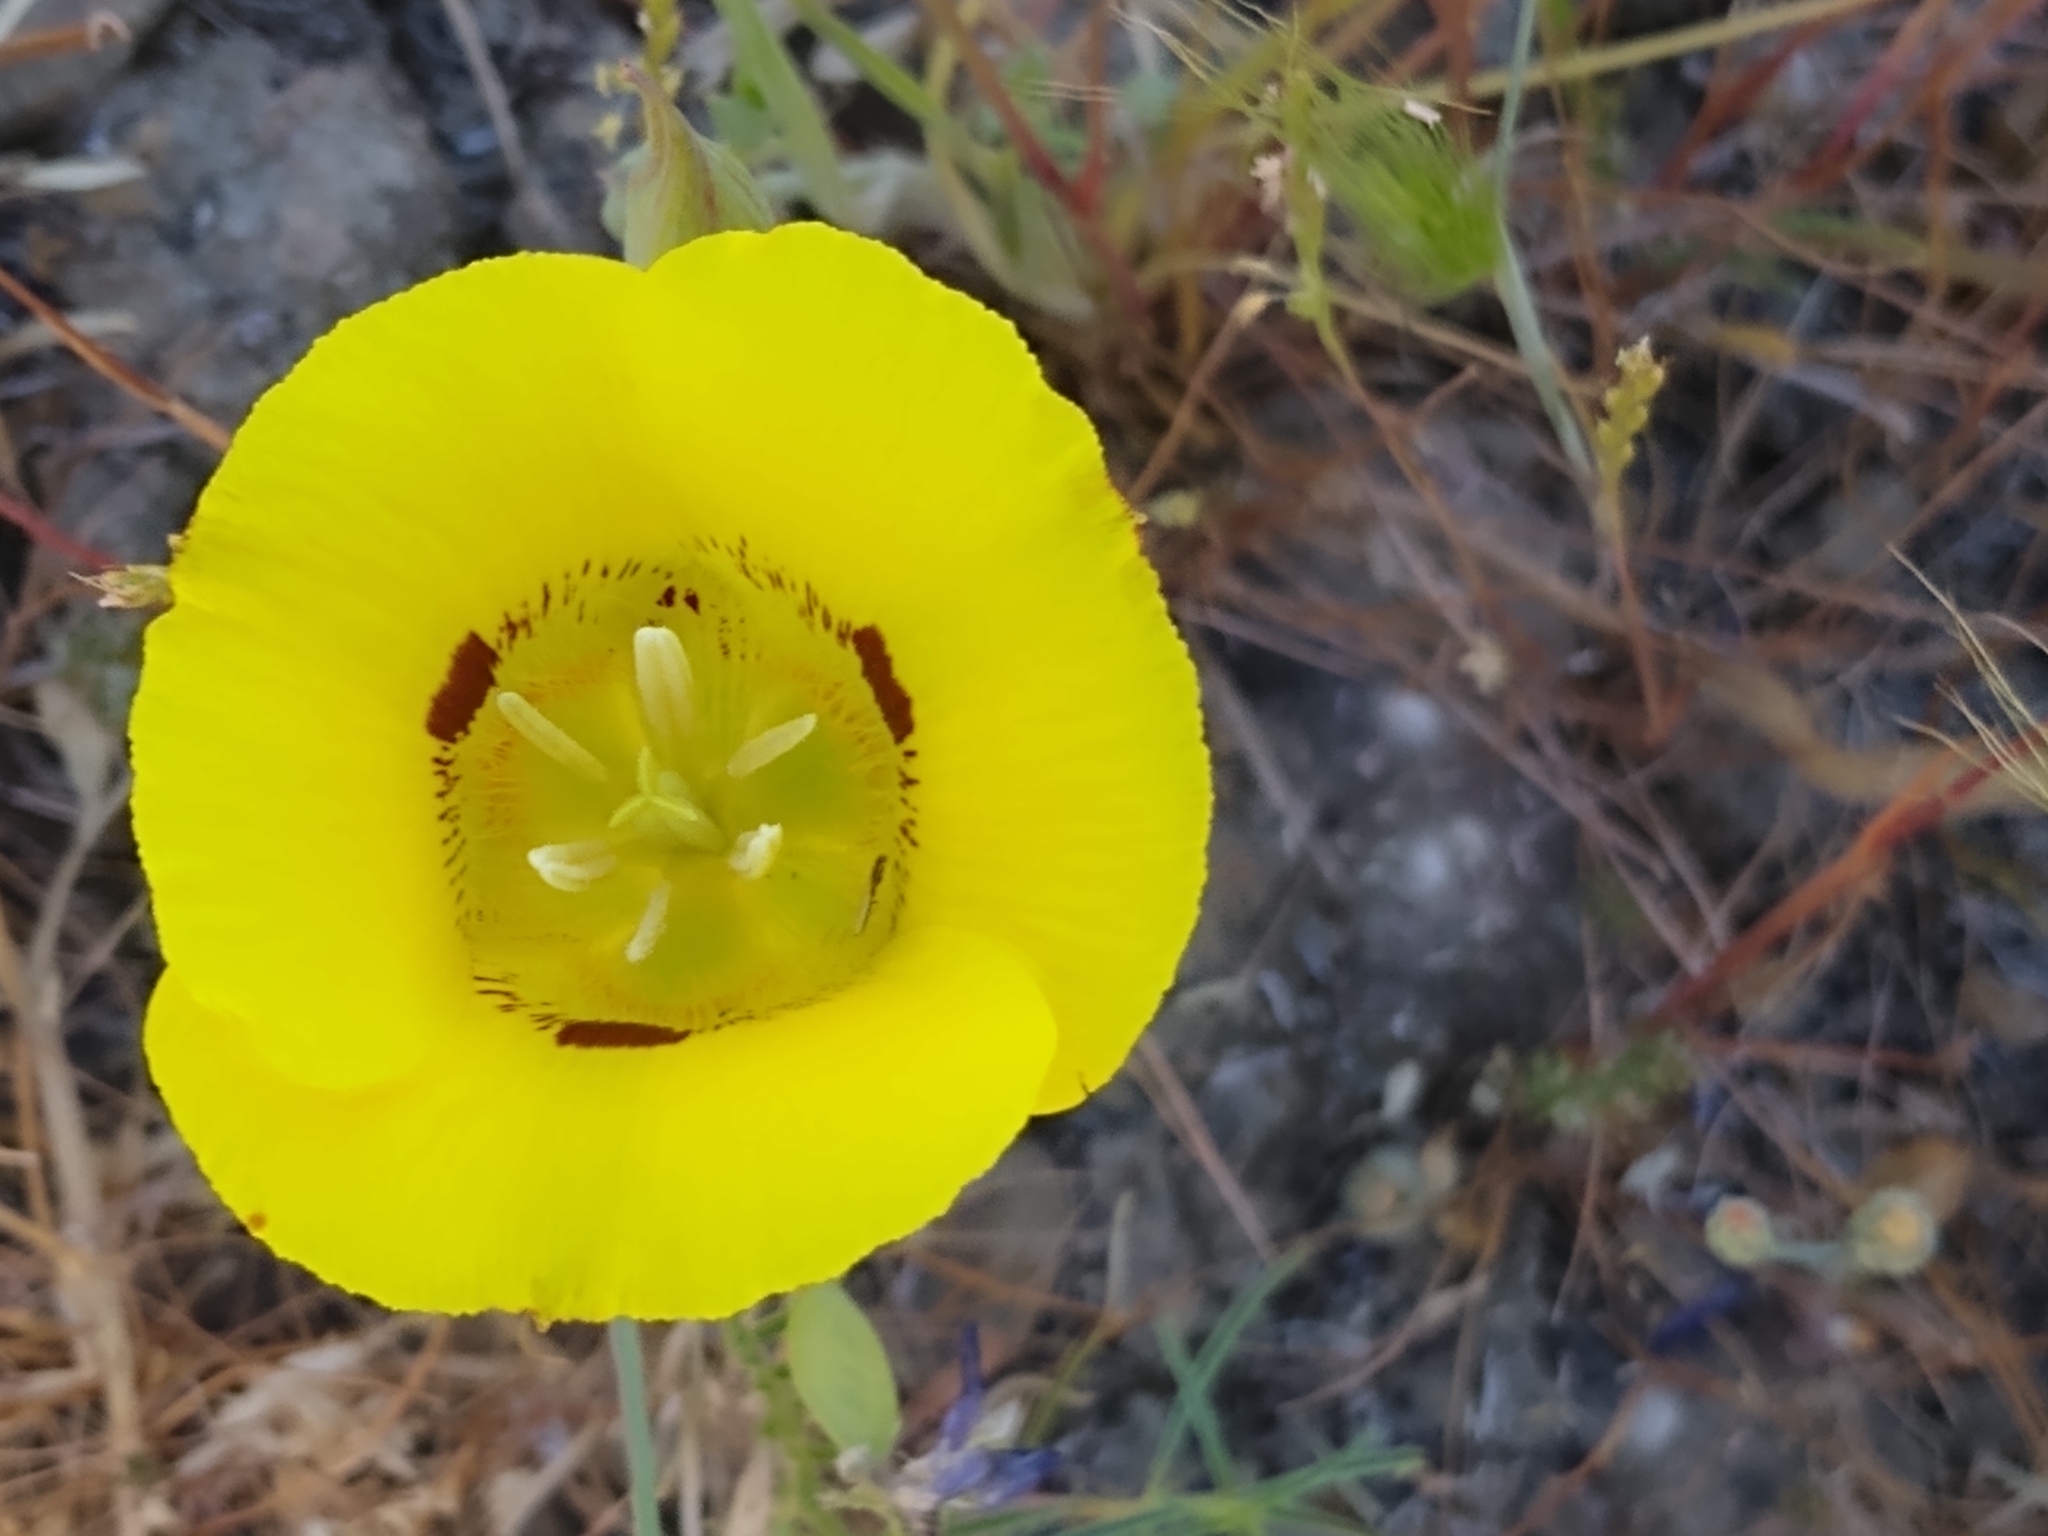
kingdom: Plantae
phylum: Tracheophyta
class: Liliopsida
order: Liliales
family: Liliaceae
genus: Calochortus
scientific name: Calochortus luteus
